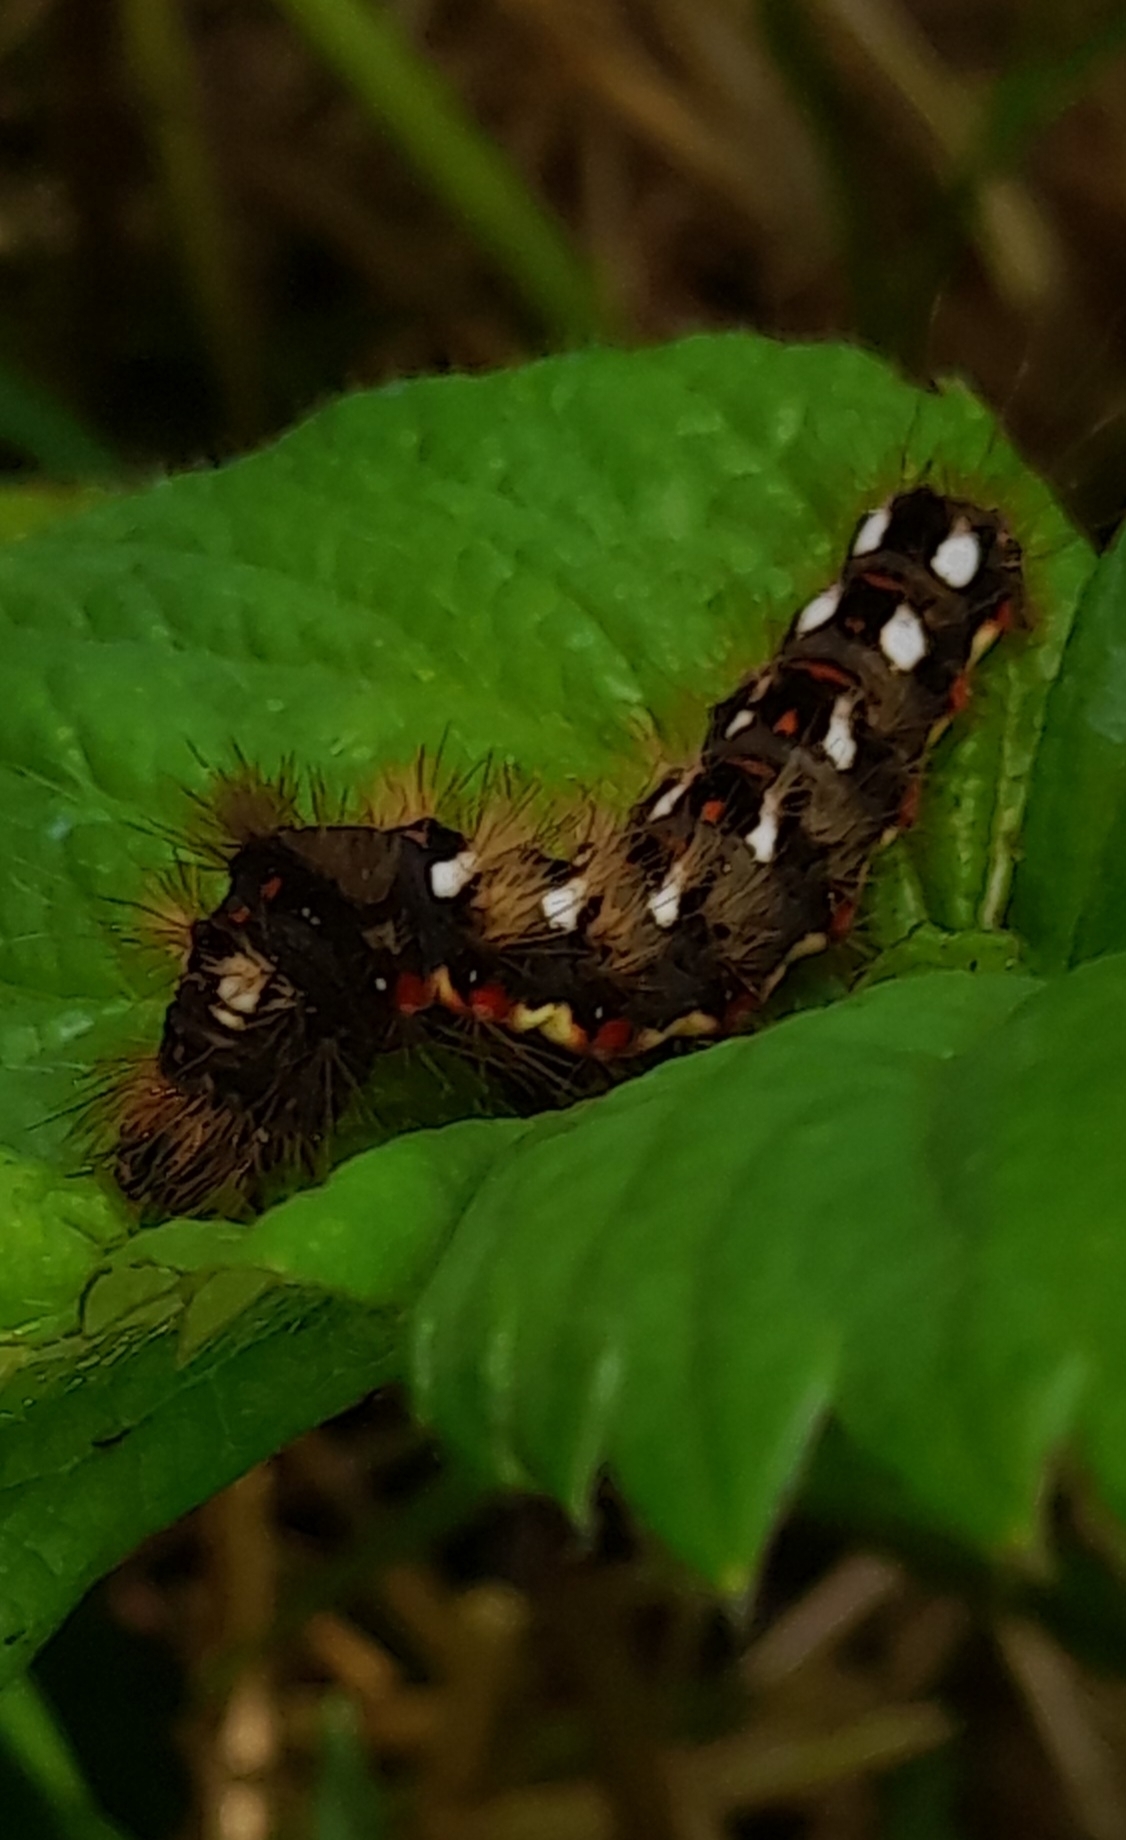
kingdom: Animalia
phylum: Arthropoda
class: Insecta
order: Lepidoptera
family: Noctuidae
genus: Acronicta
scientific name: Acronicta rumicis
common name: Knot grass
